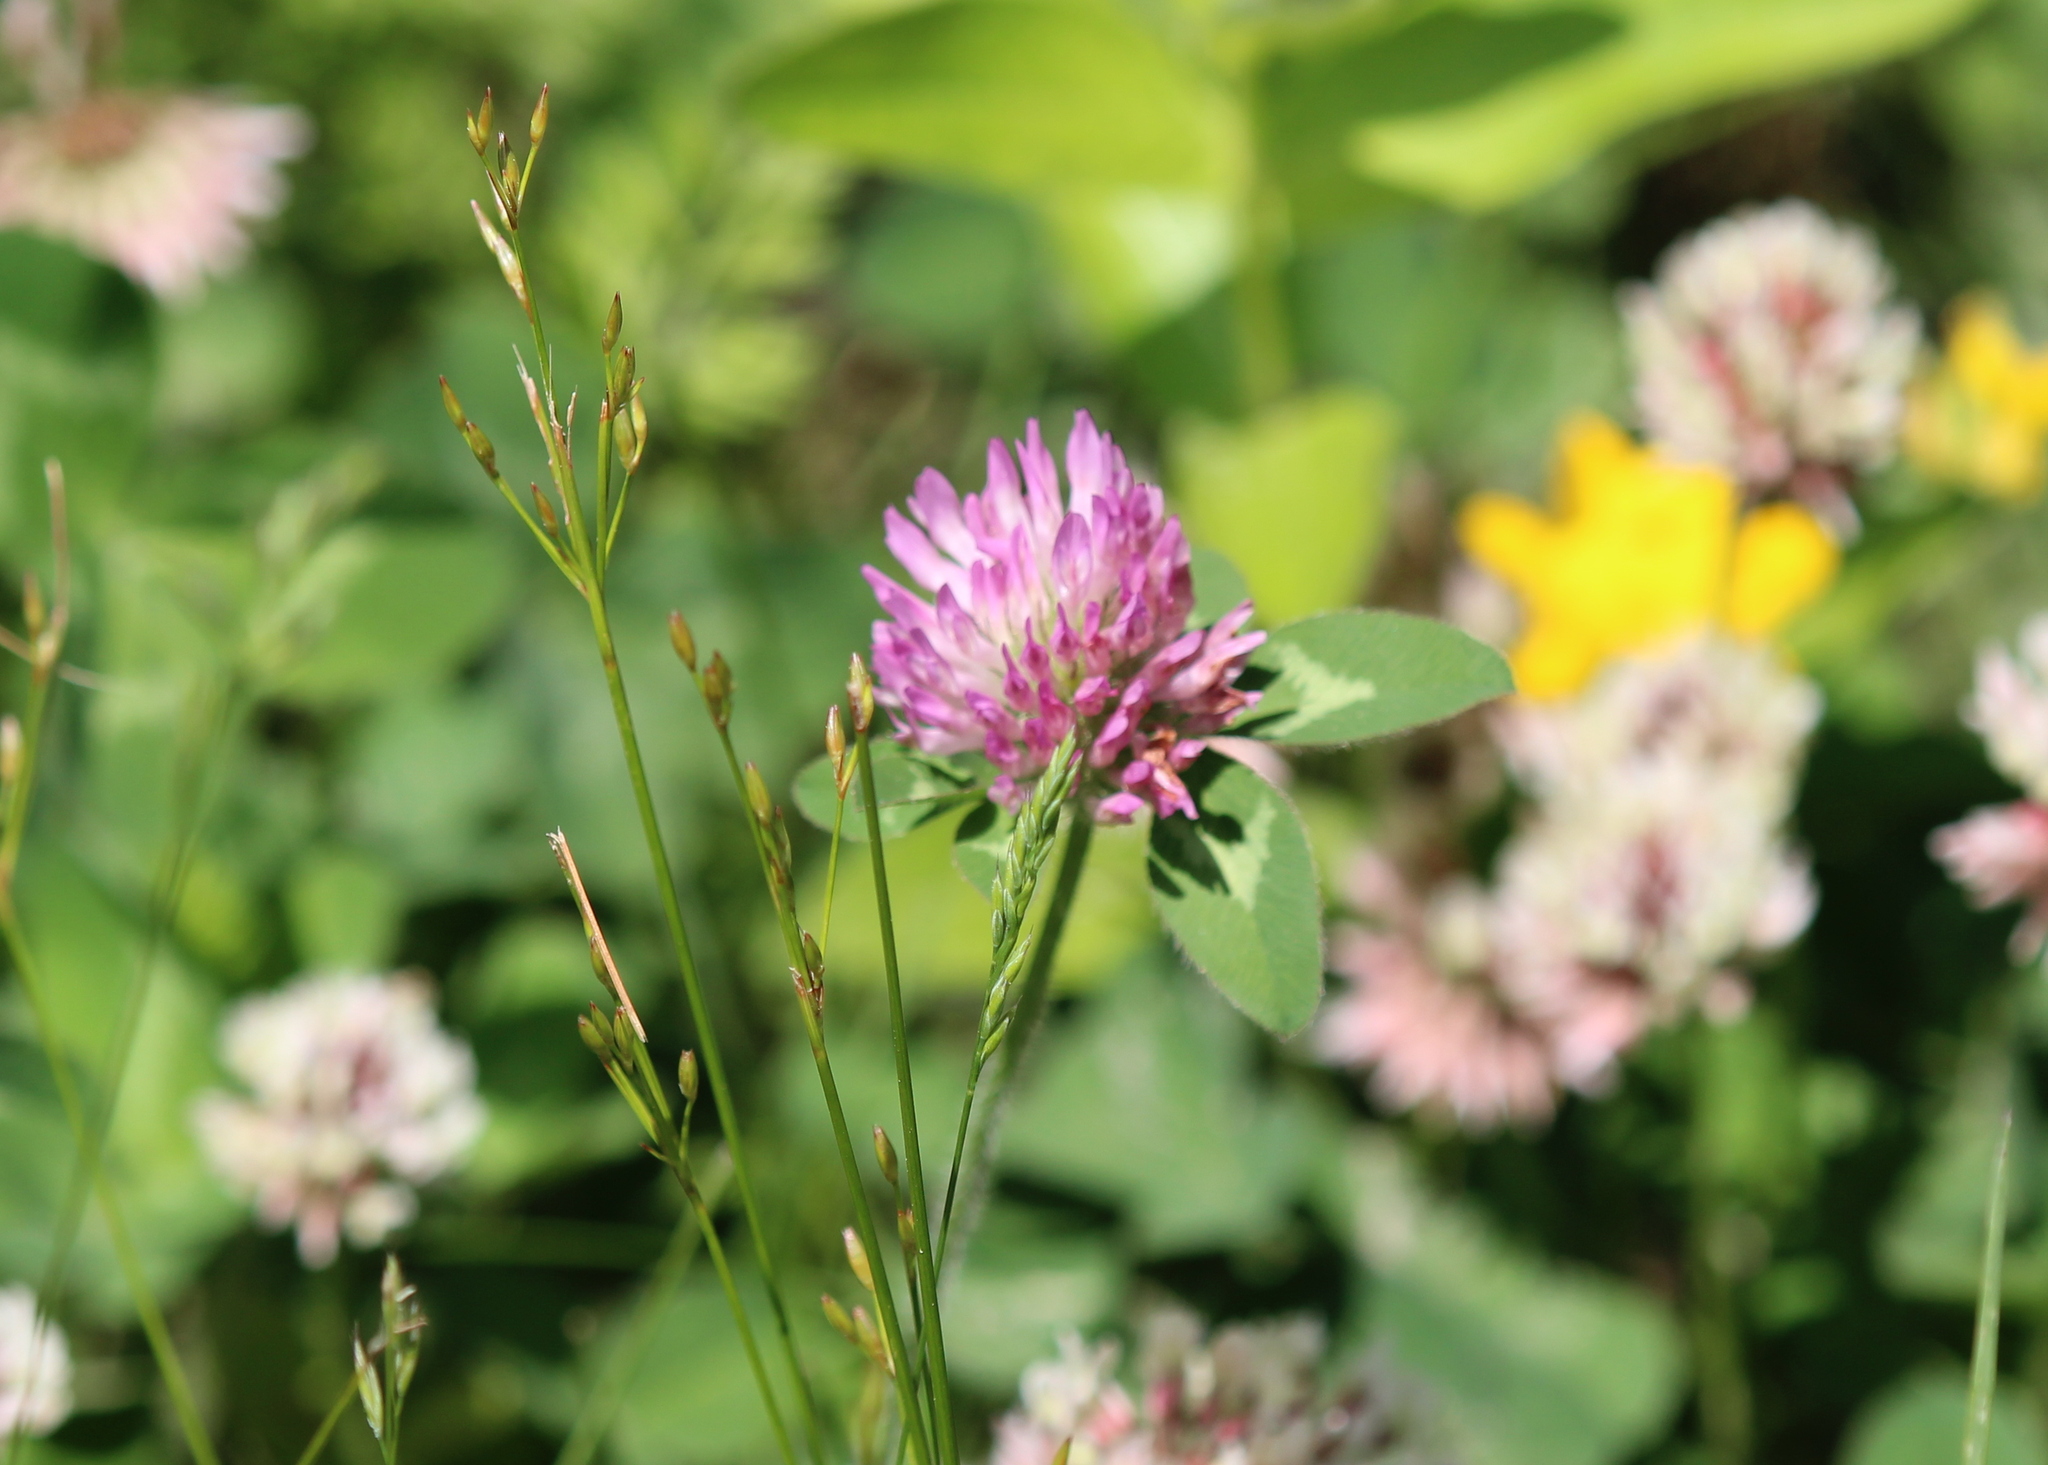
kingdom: Plantae
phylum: Tracheophyta
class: Magnoliopsida
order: Fabales
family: Fabaceae
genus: Trifolium
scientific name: Trifolium pratense
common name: Red clover
